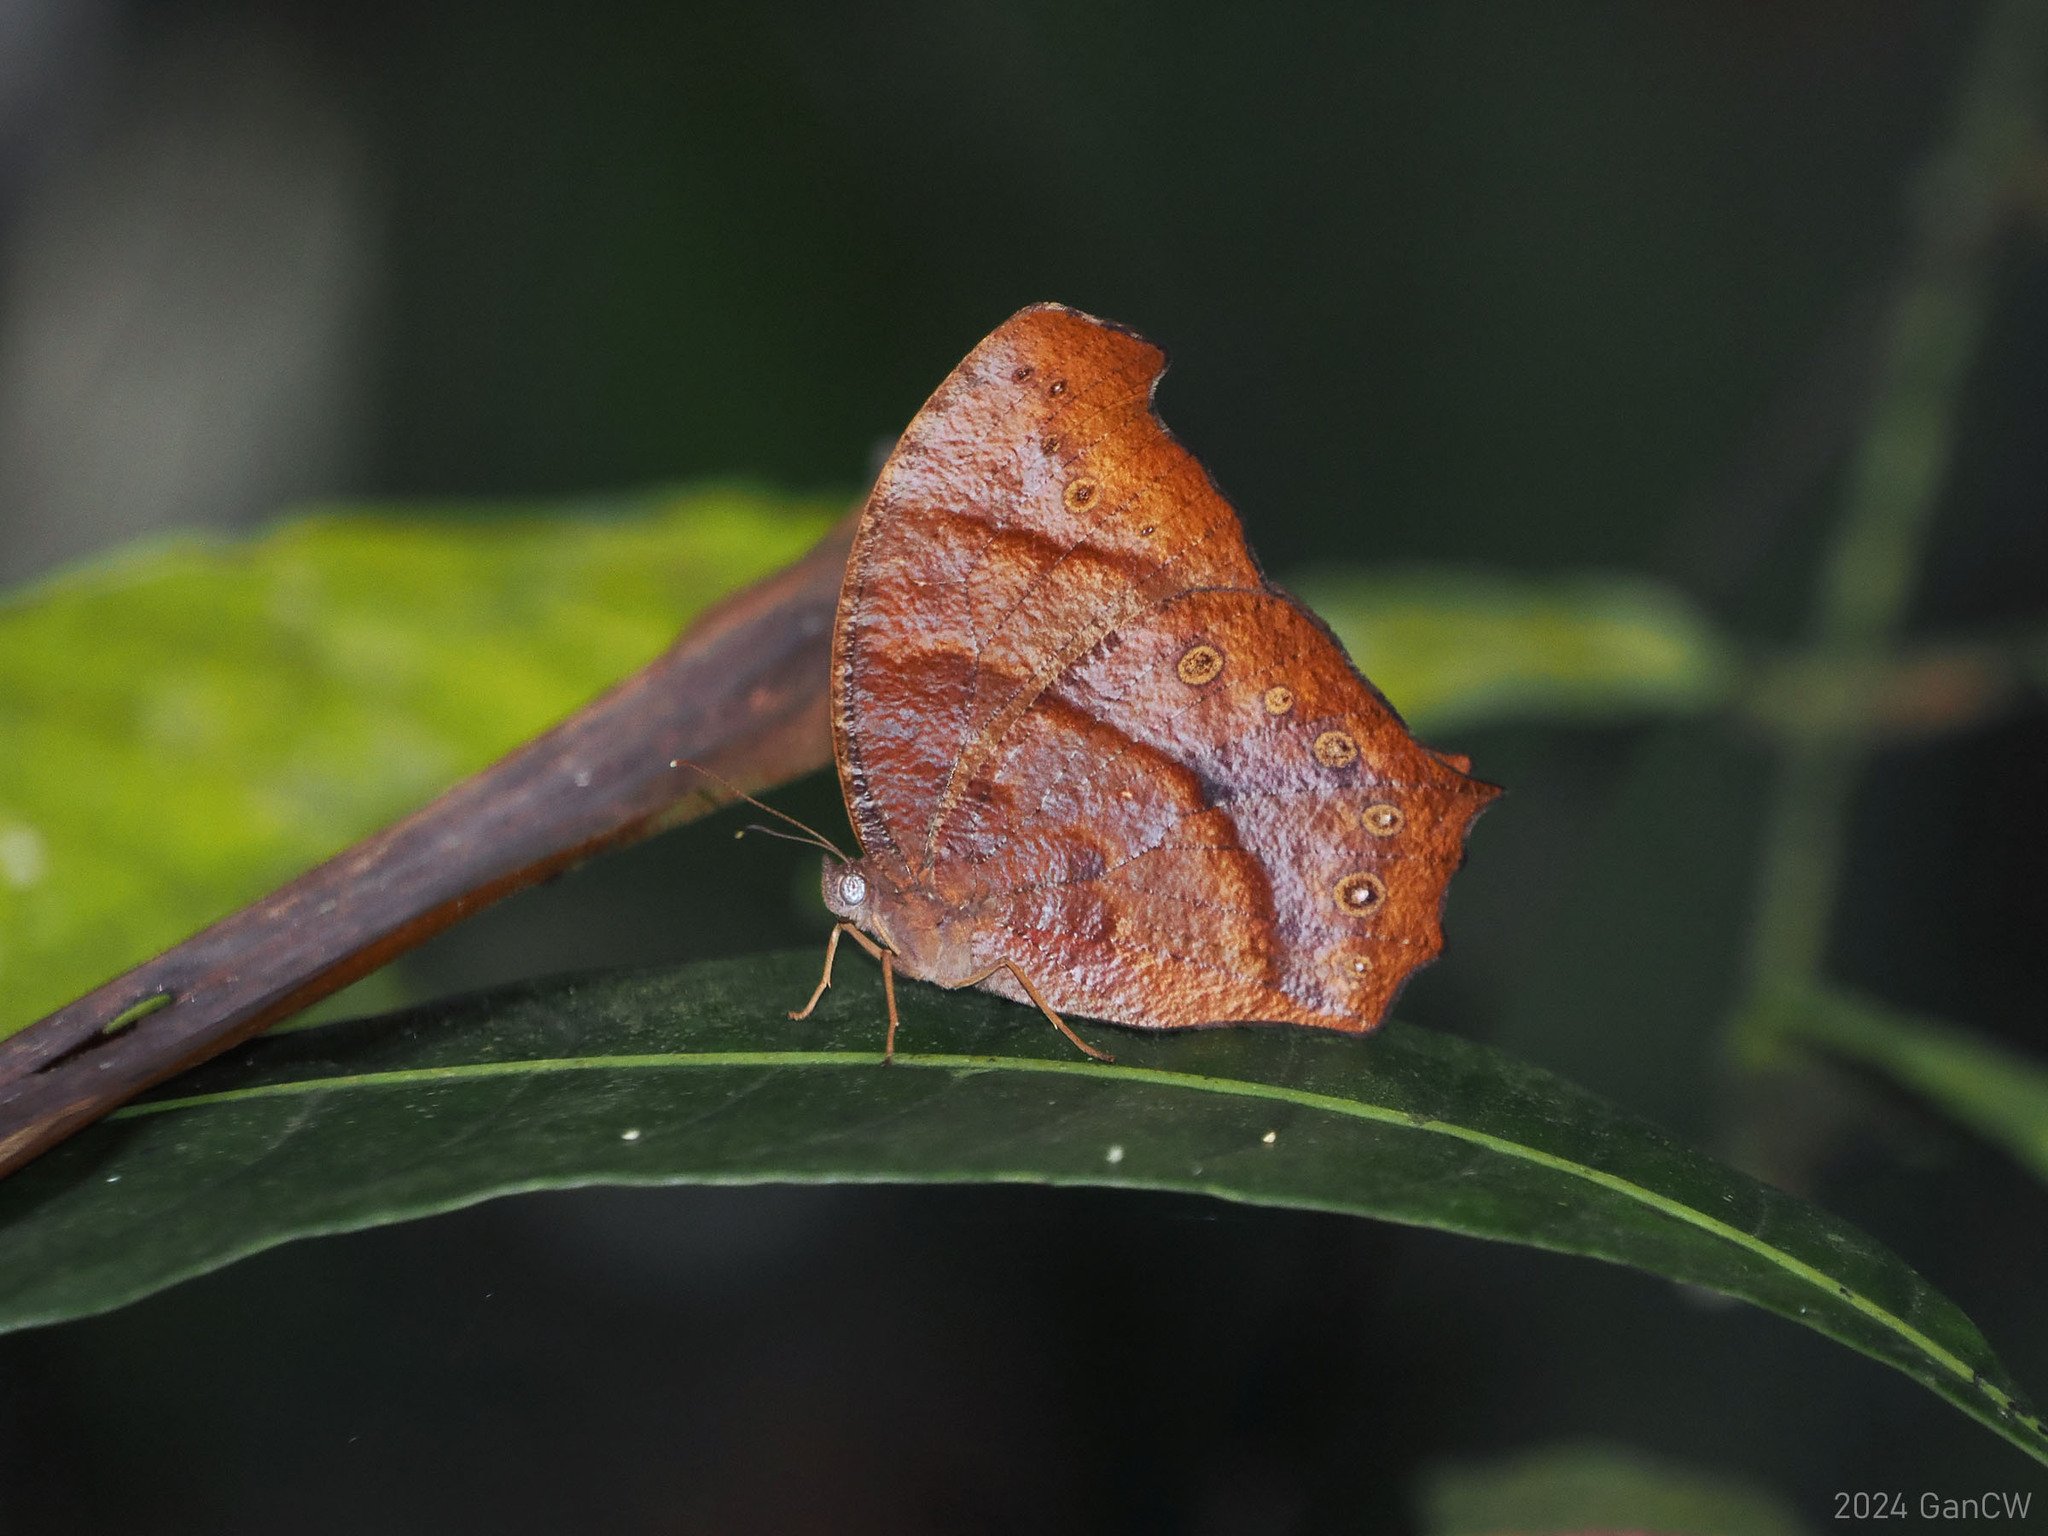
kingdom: Animalia
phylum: Arthropoda
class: Insecta
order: Lepidoptera
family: Nymphalidae
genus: Melanitis
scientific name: Melanitis phedima
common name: Dark evening brown
